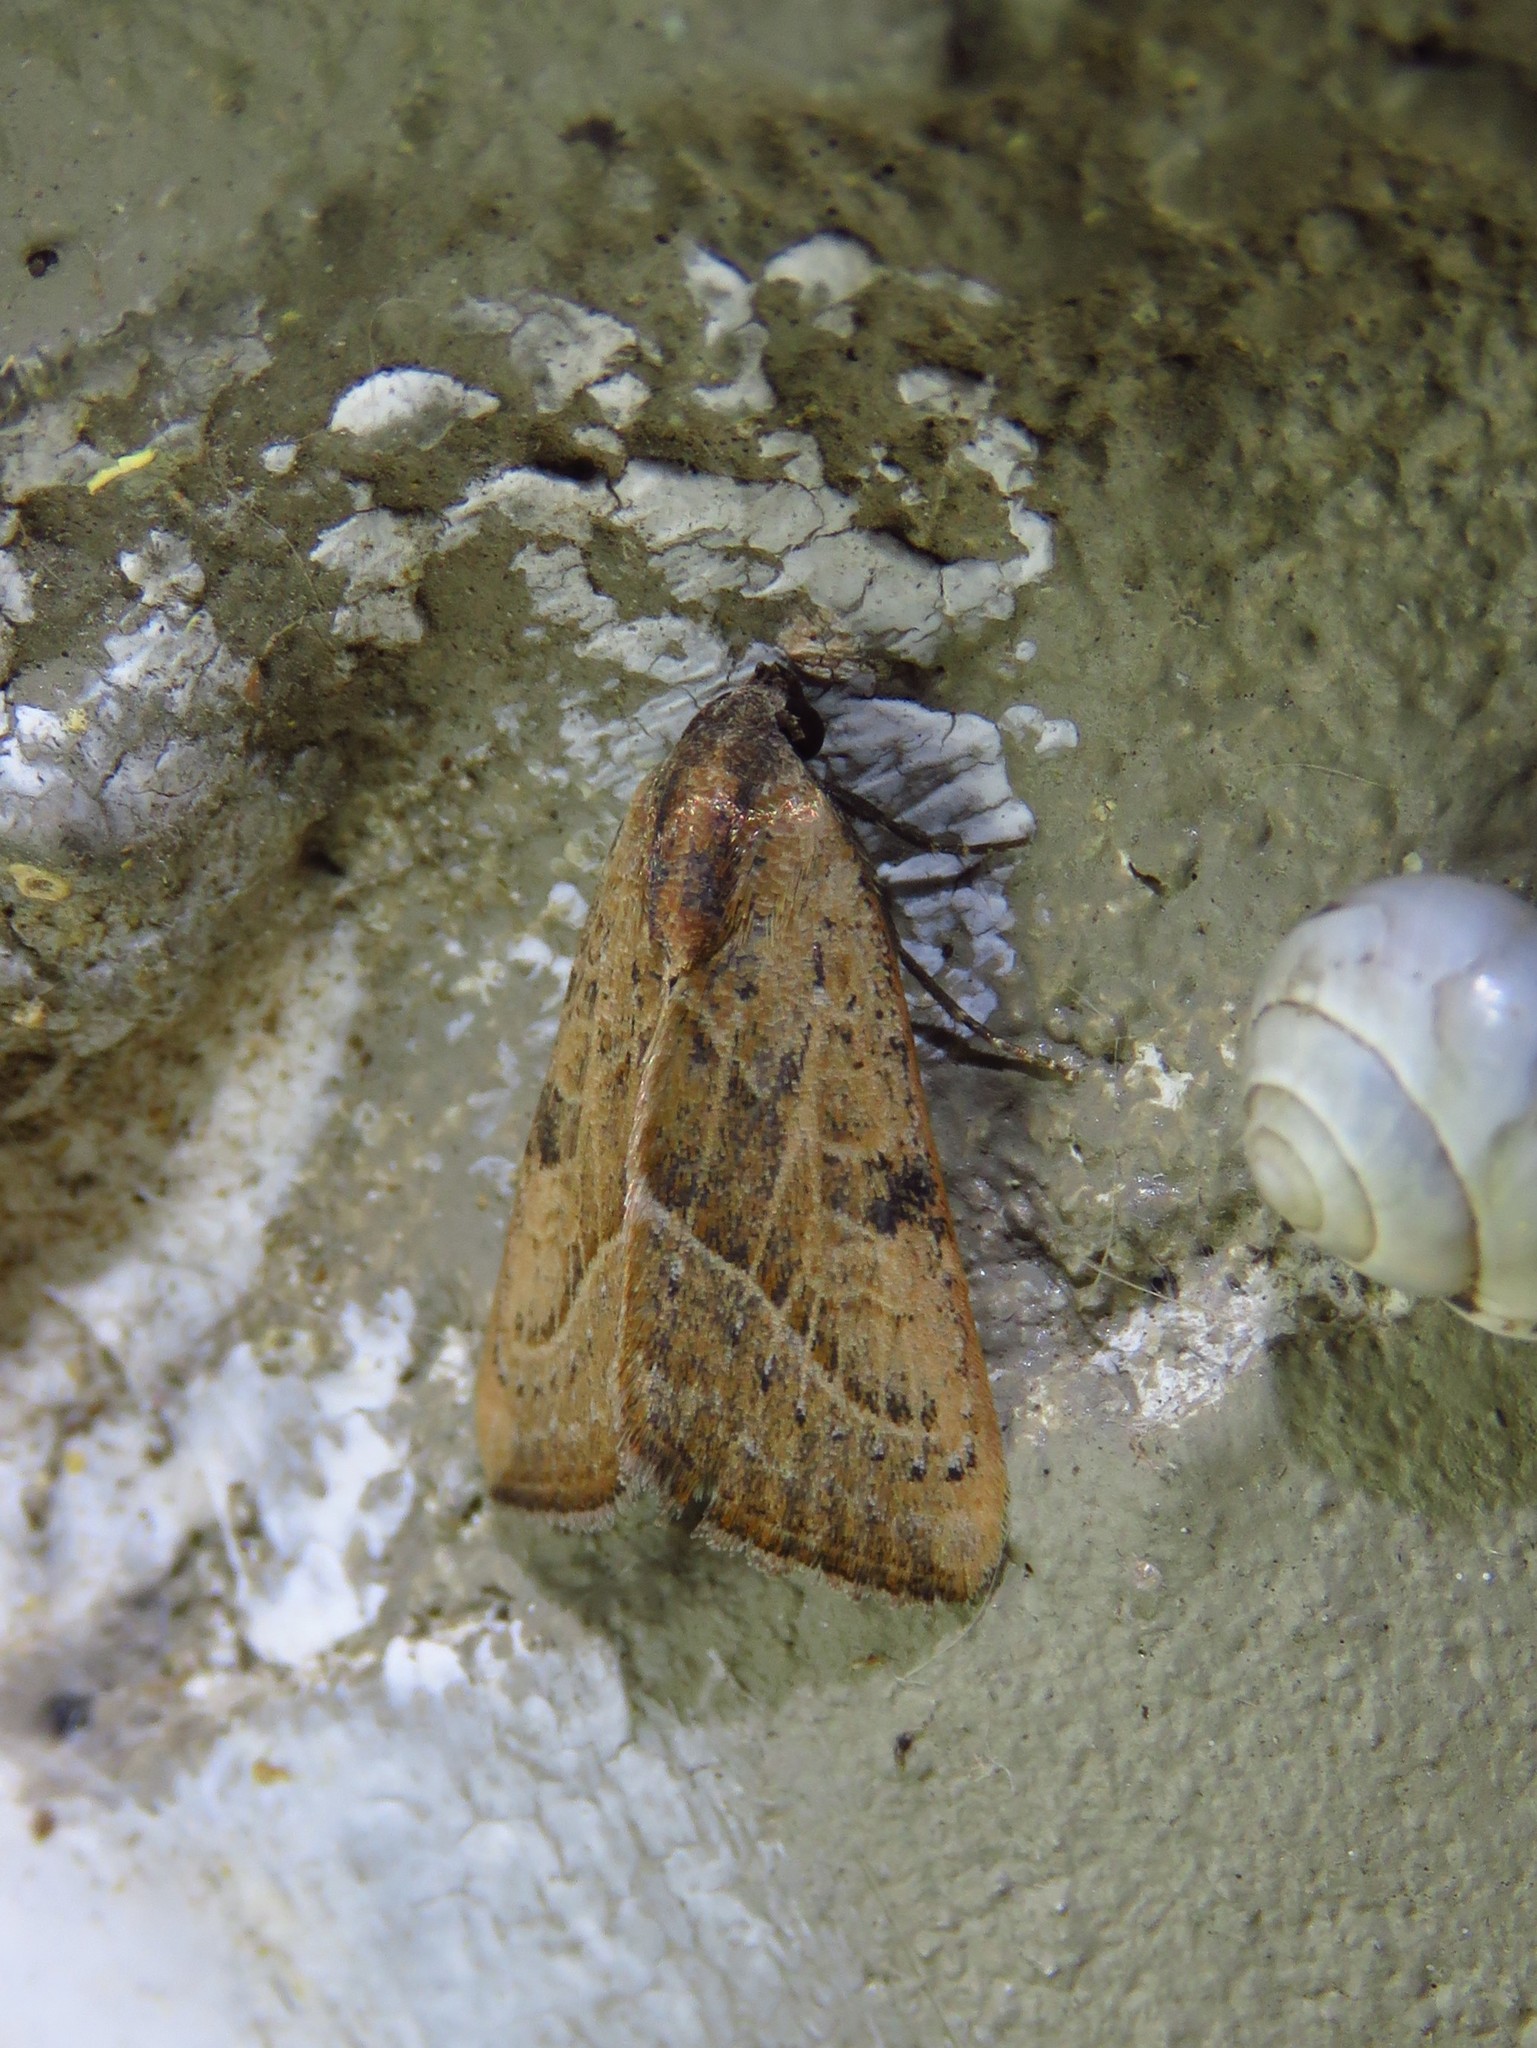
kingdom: Animalia
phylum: Arthropoda
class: Insecta
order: Lepidoptera
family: Noctuidae
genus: Galgula
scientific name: Galgula partita
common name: Wedgeling
